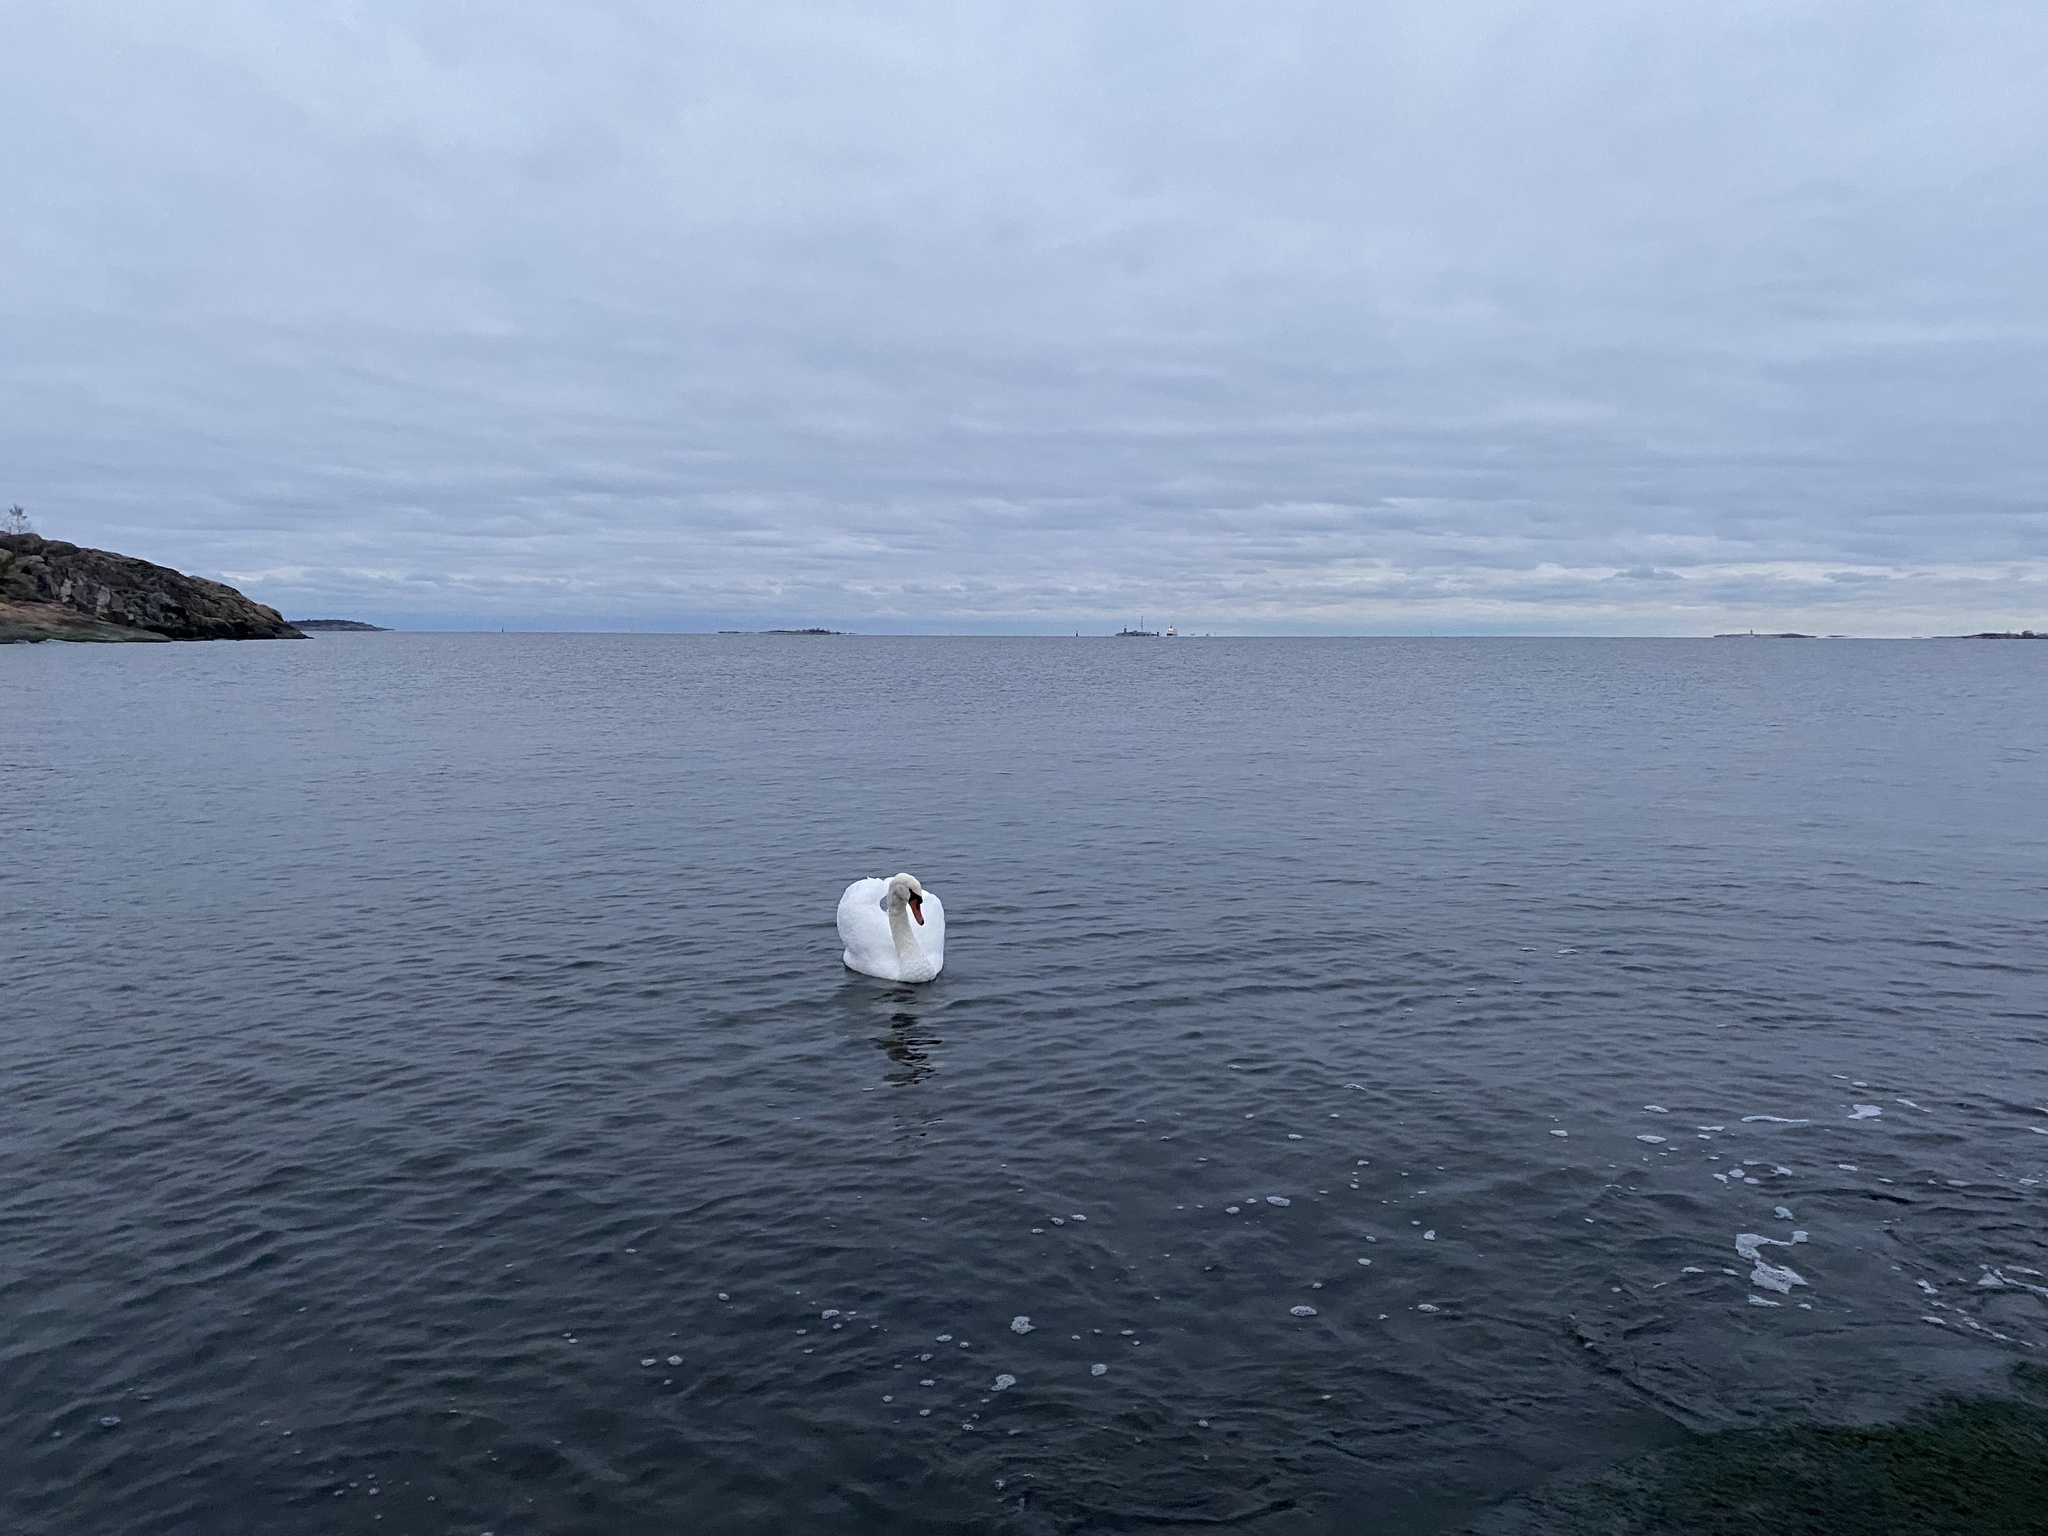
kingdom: Animalia
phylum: Chordata
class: Aves
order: Anseriformes
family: Anatidae
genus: Cygnus
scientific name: Cygnus olor
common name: Mute swan
